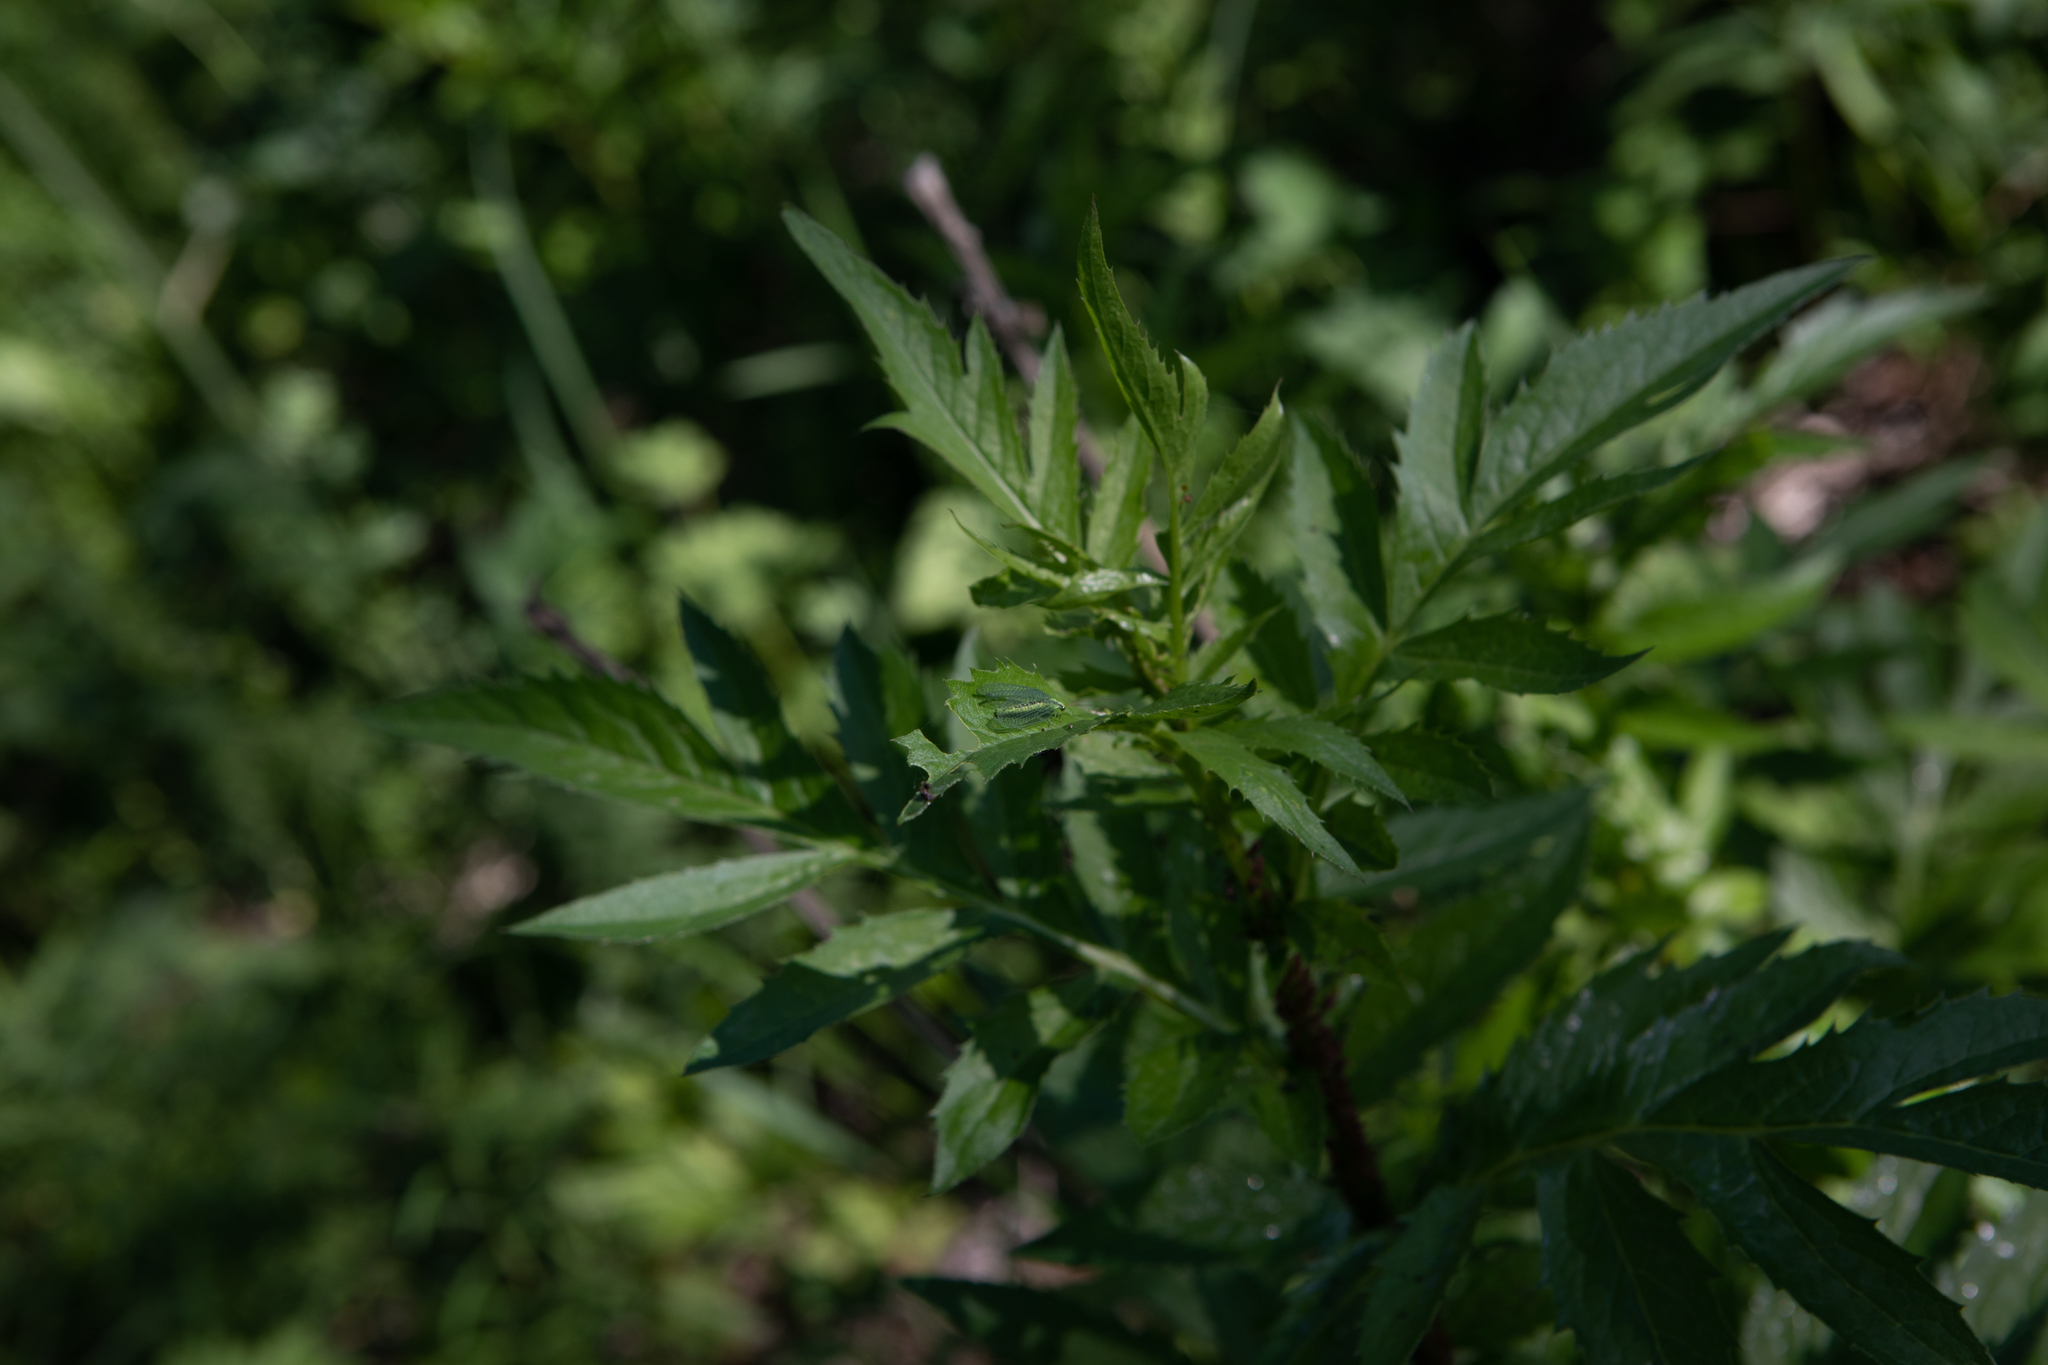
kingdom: Plantae
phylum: Tracheophyta
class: Magnoliopsida
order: Asterales
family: Asteraceae
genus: Serratula
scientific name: Serratula coronata
